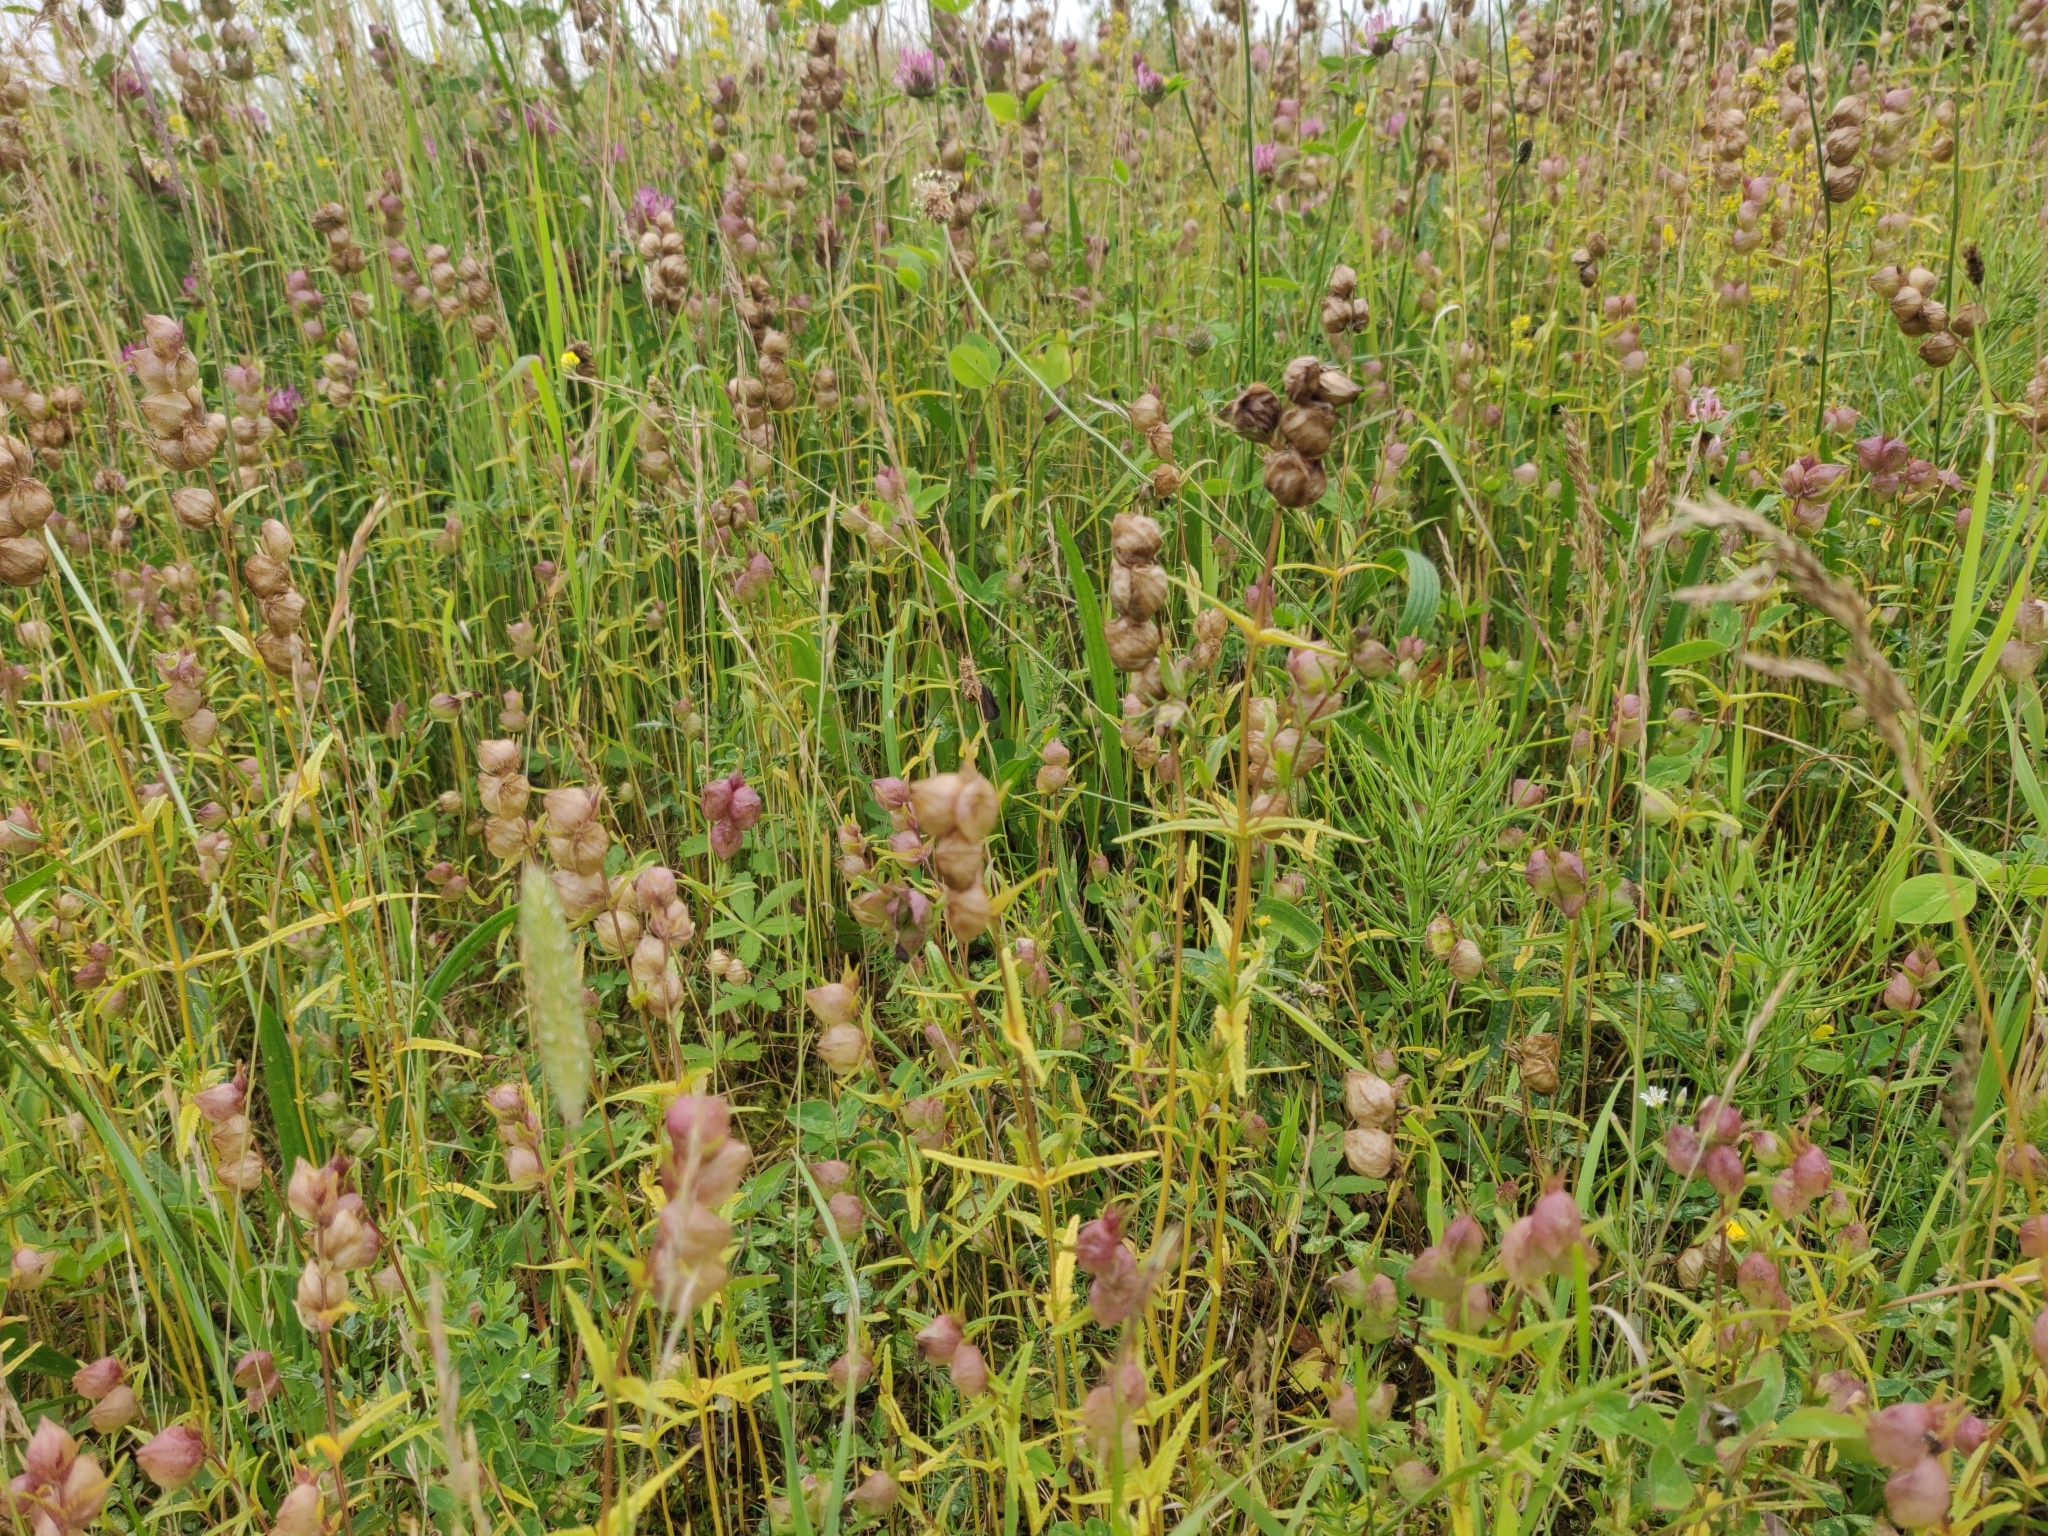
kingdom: Plantae
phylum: Tracheophyta
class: Magnoliopsida
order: Lamiales
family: Orobanchaceae
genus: Rhinanthus
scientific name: Rhinanthus minor
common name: Yellow-rattle
